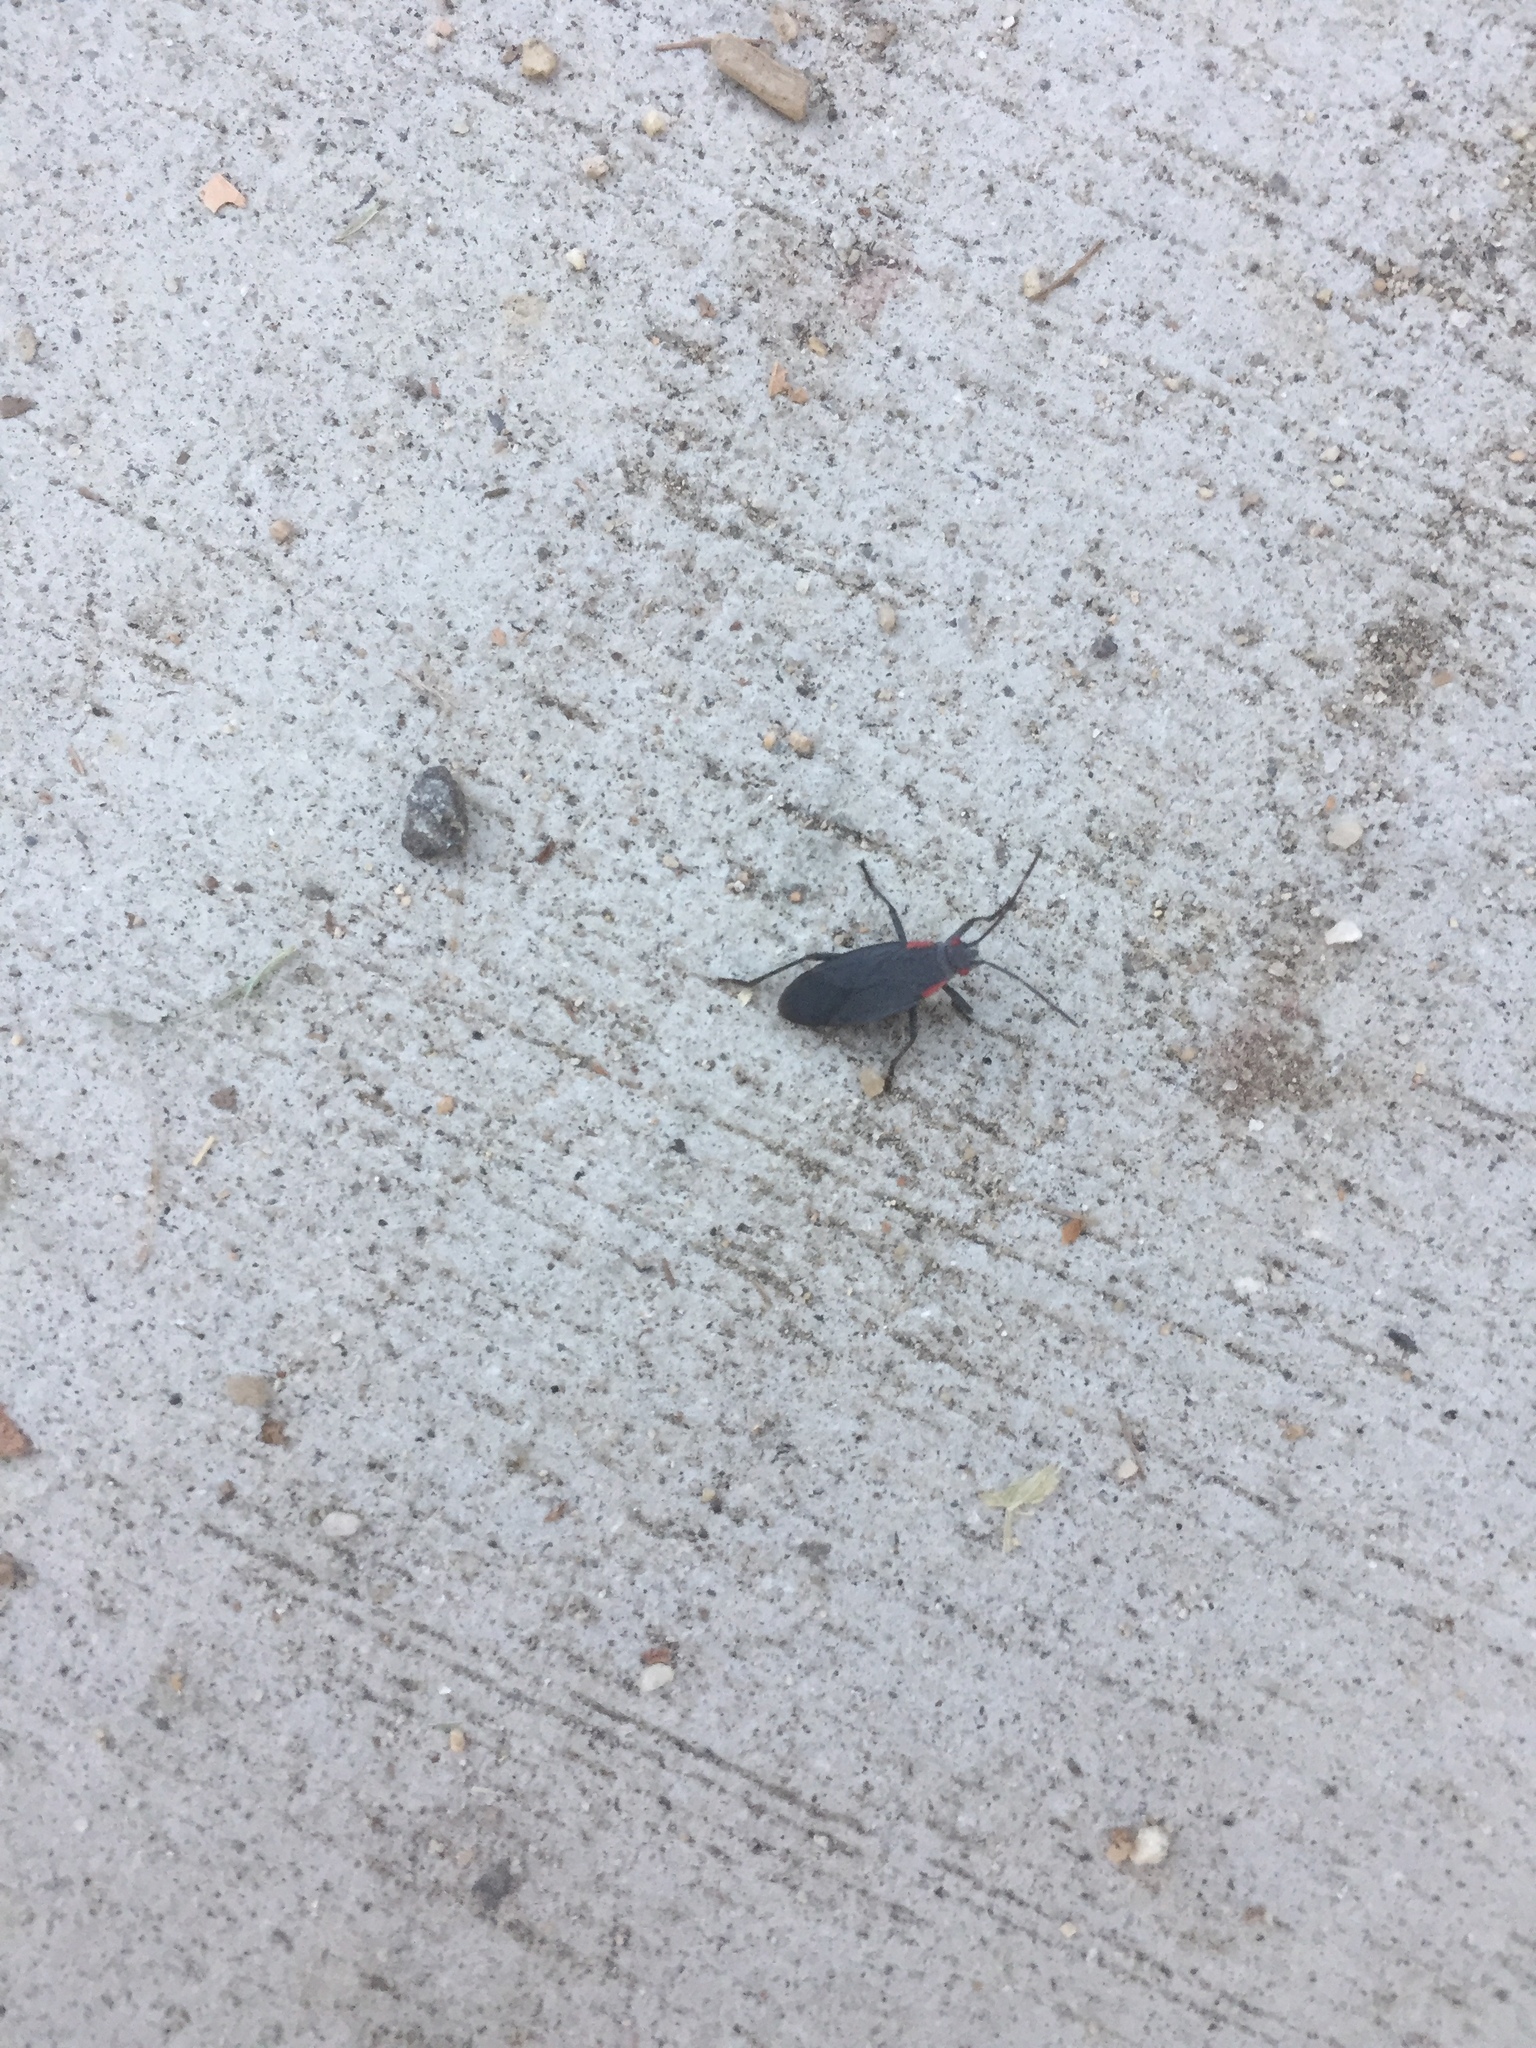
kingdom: Animalia
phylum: Arthropoda
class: Insecta
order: Hemiptera
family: Rhopalidae
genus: Jadera
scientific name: Jadera haematoloma
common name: Red-shouldered bug
